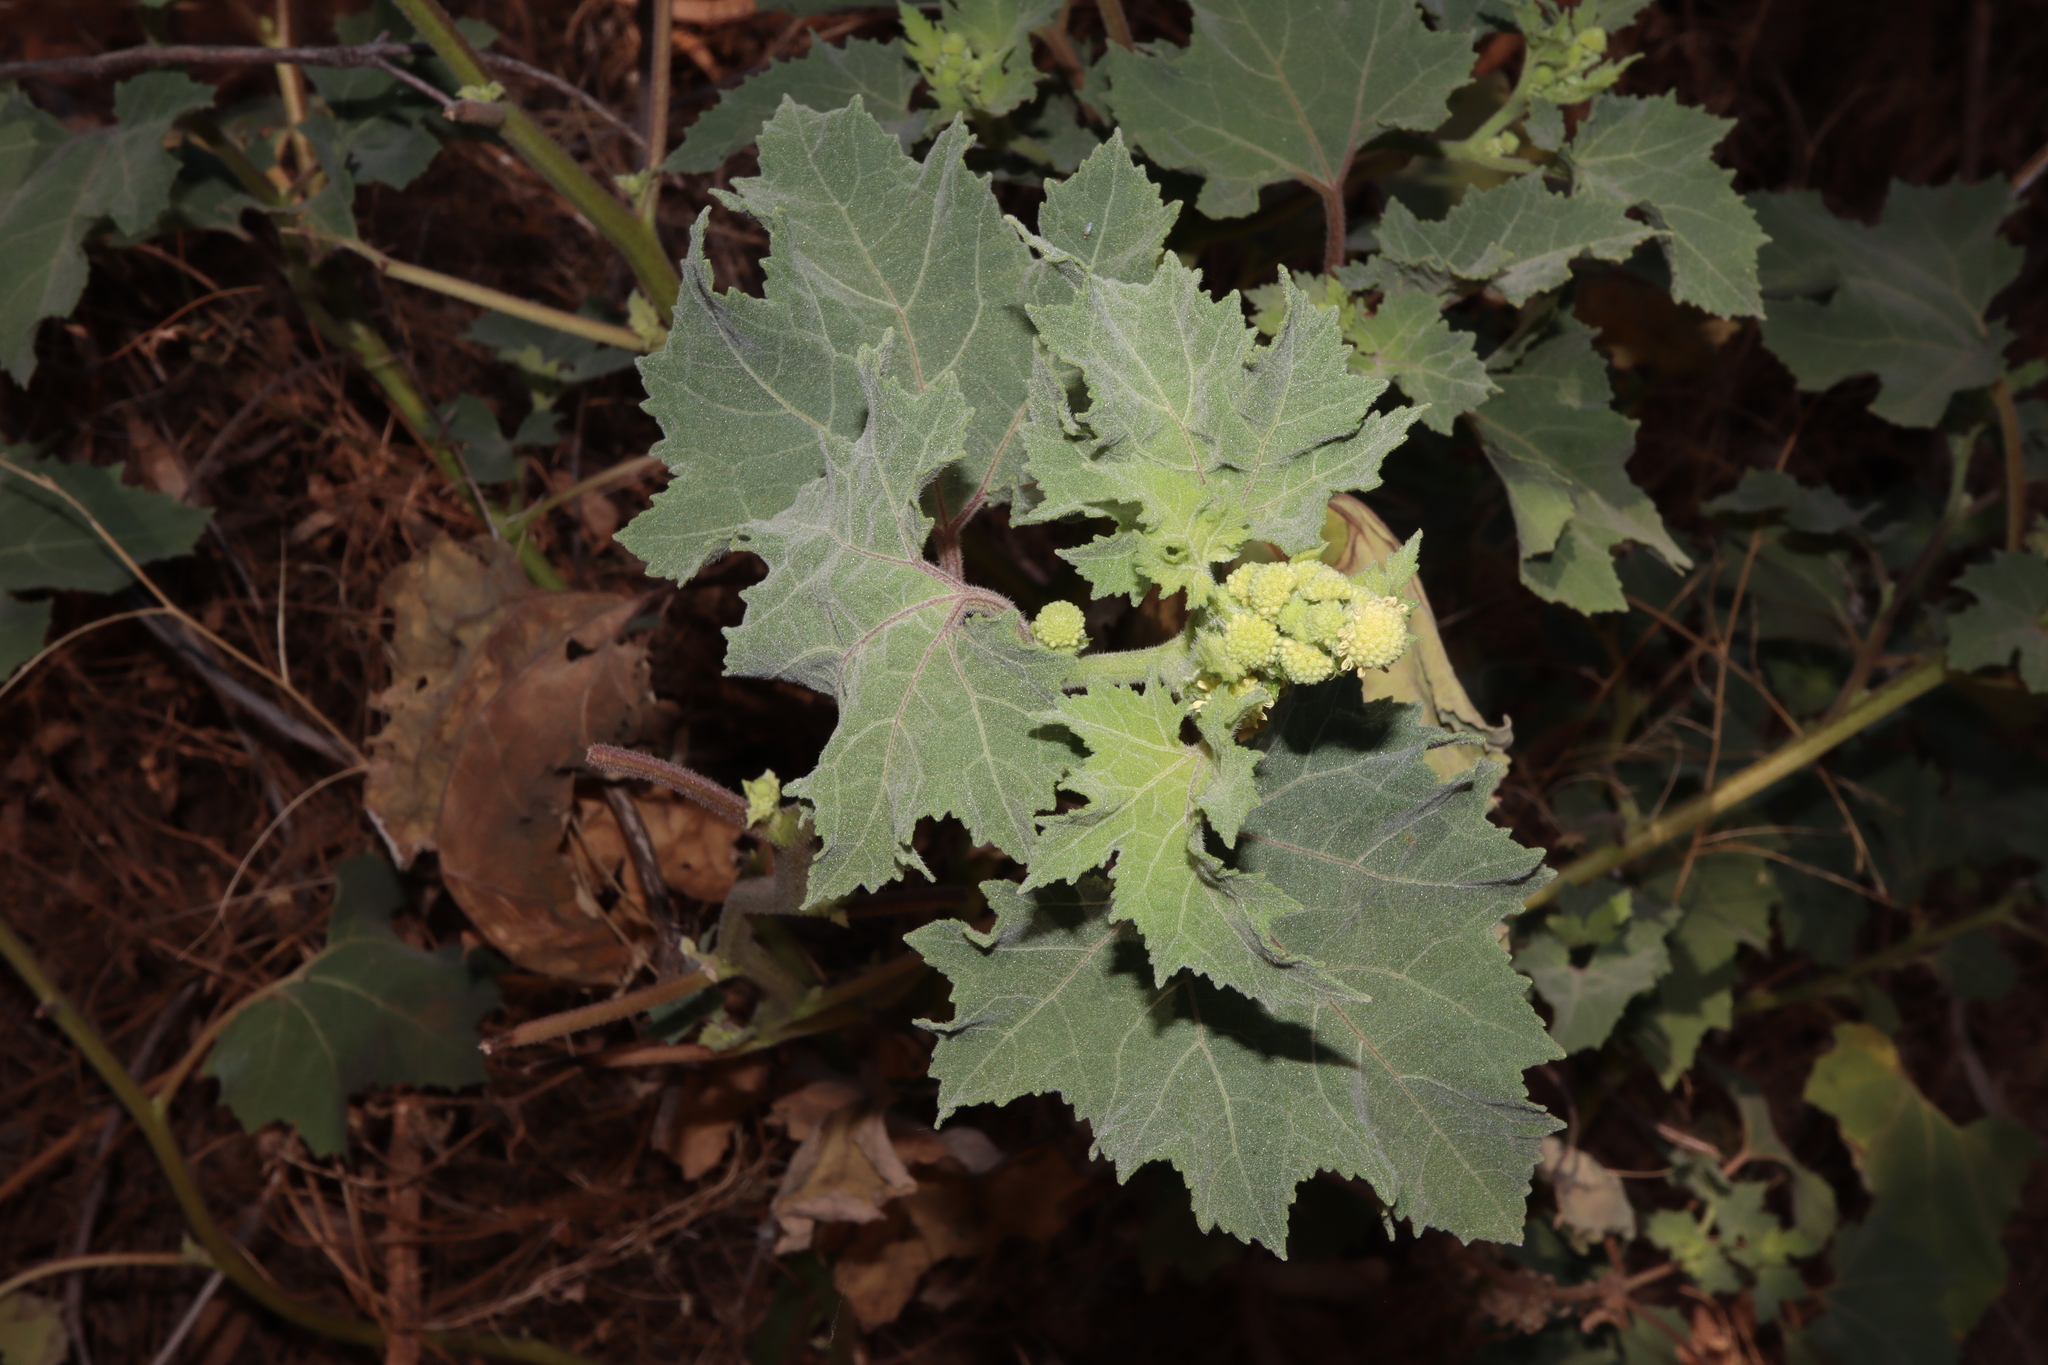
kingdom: Plantae
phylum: Tracheophyta
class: Magnoliopsida
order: Asterales
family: Asteraceae
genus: Xanthium
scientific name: Xanthium strumarium
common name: Rough cocklebur
